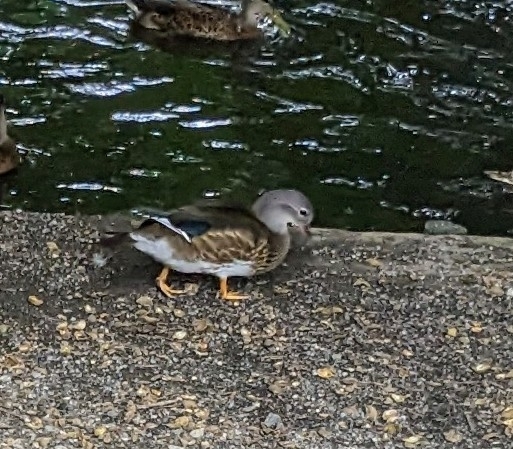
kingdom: Animalia
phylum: Chordata
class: Aves
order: Anseriformes
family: Anatidae
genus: Aix
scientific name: Aix galericulata
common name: Mandarin duck
